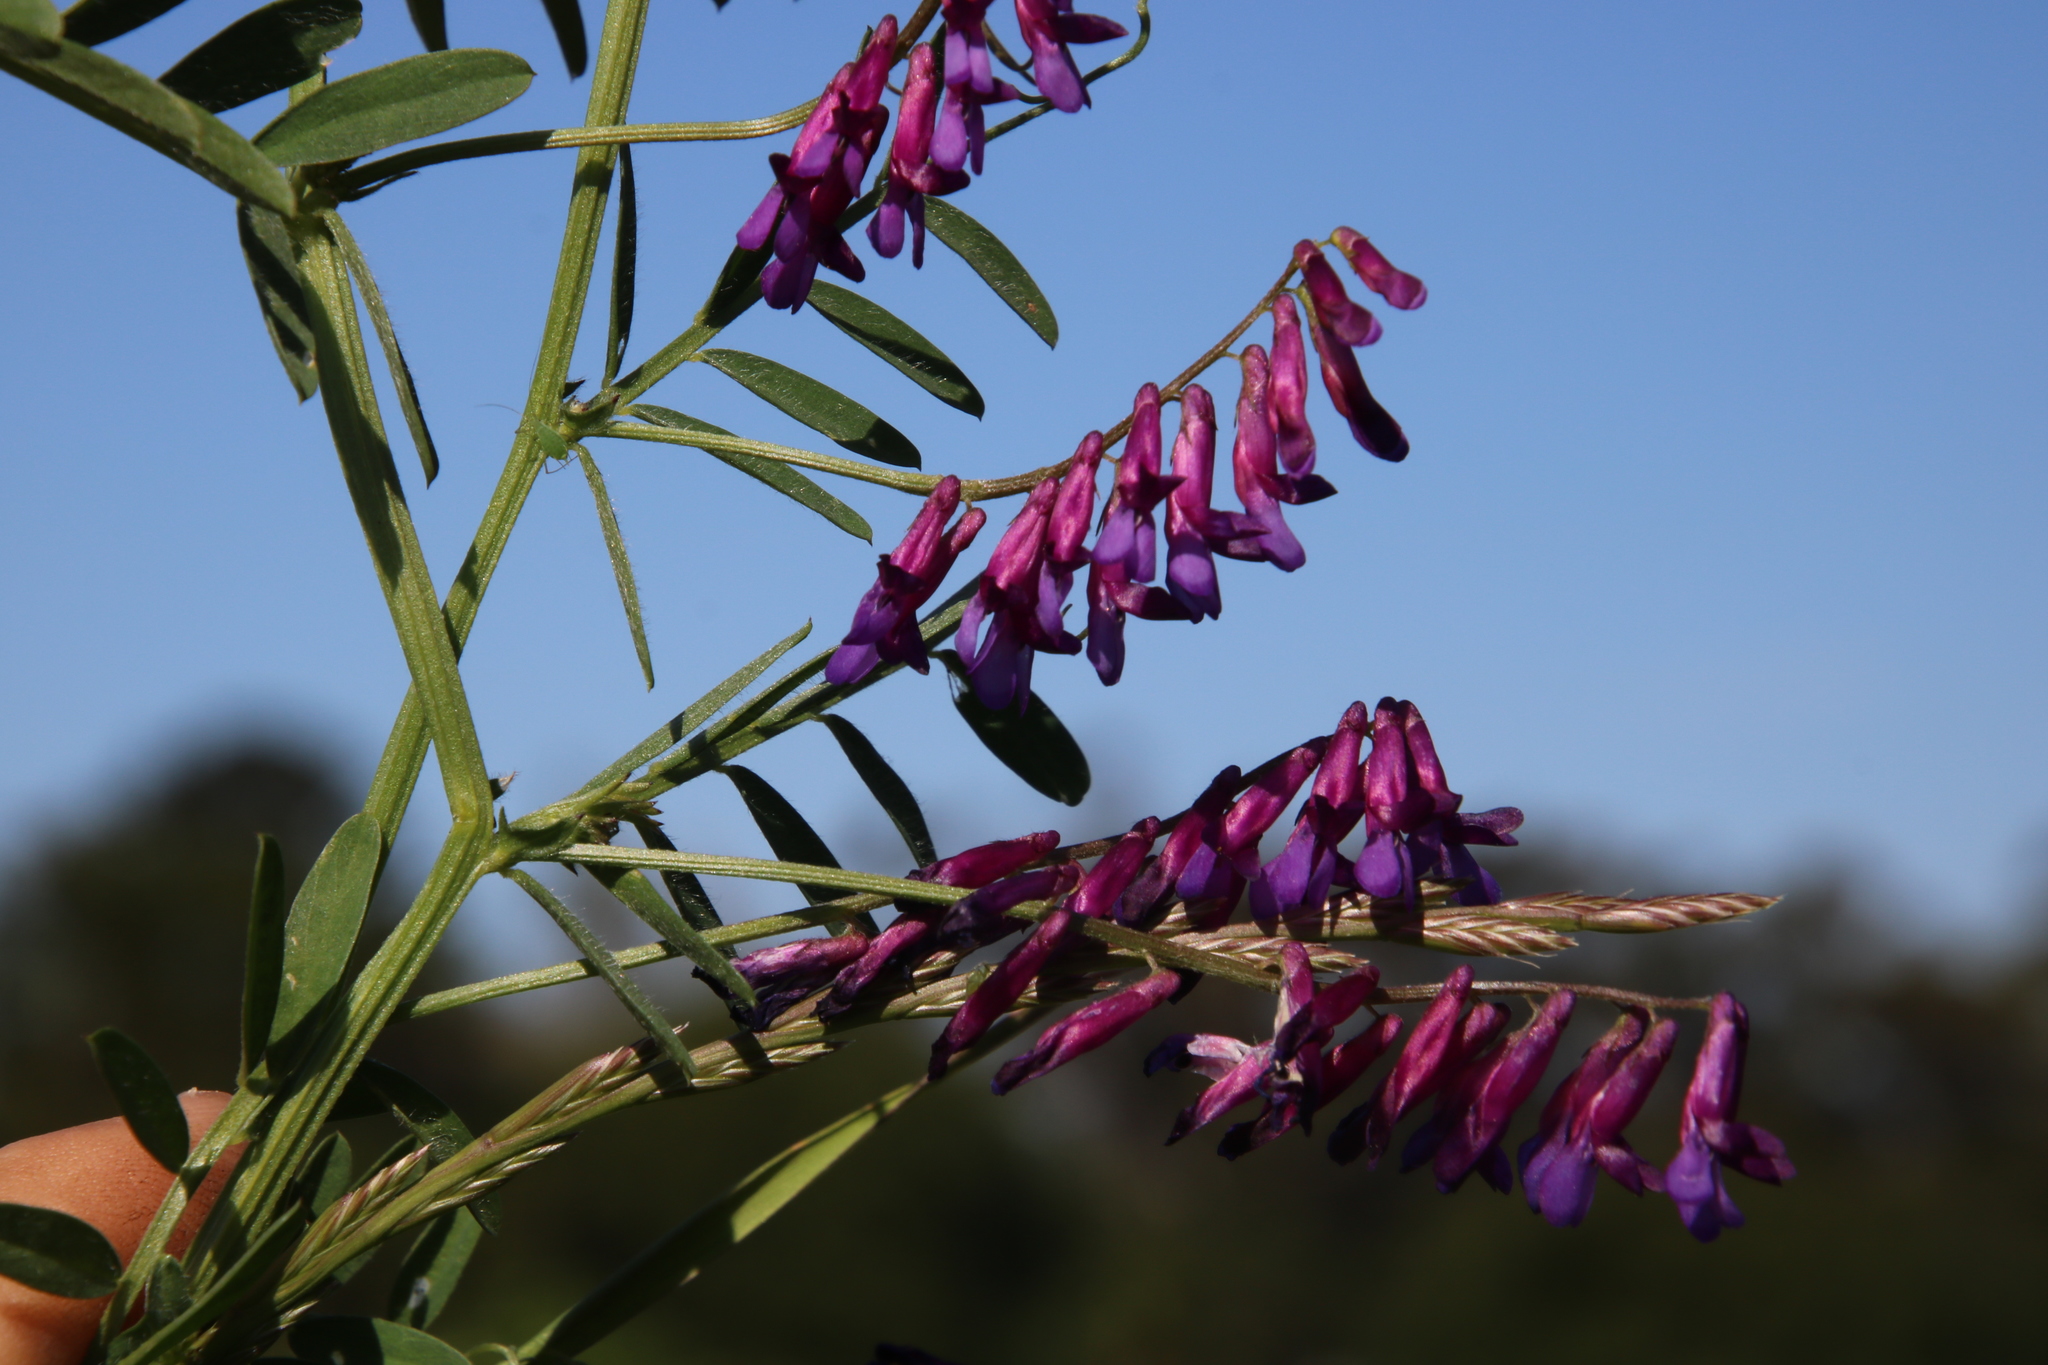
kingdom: Plantae
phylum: Tracheophyta
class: Magnoliopsida
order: Fabales
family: Fabaceae
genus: Vicia
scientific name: Vicia eriocarpa
